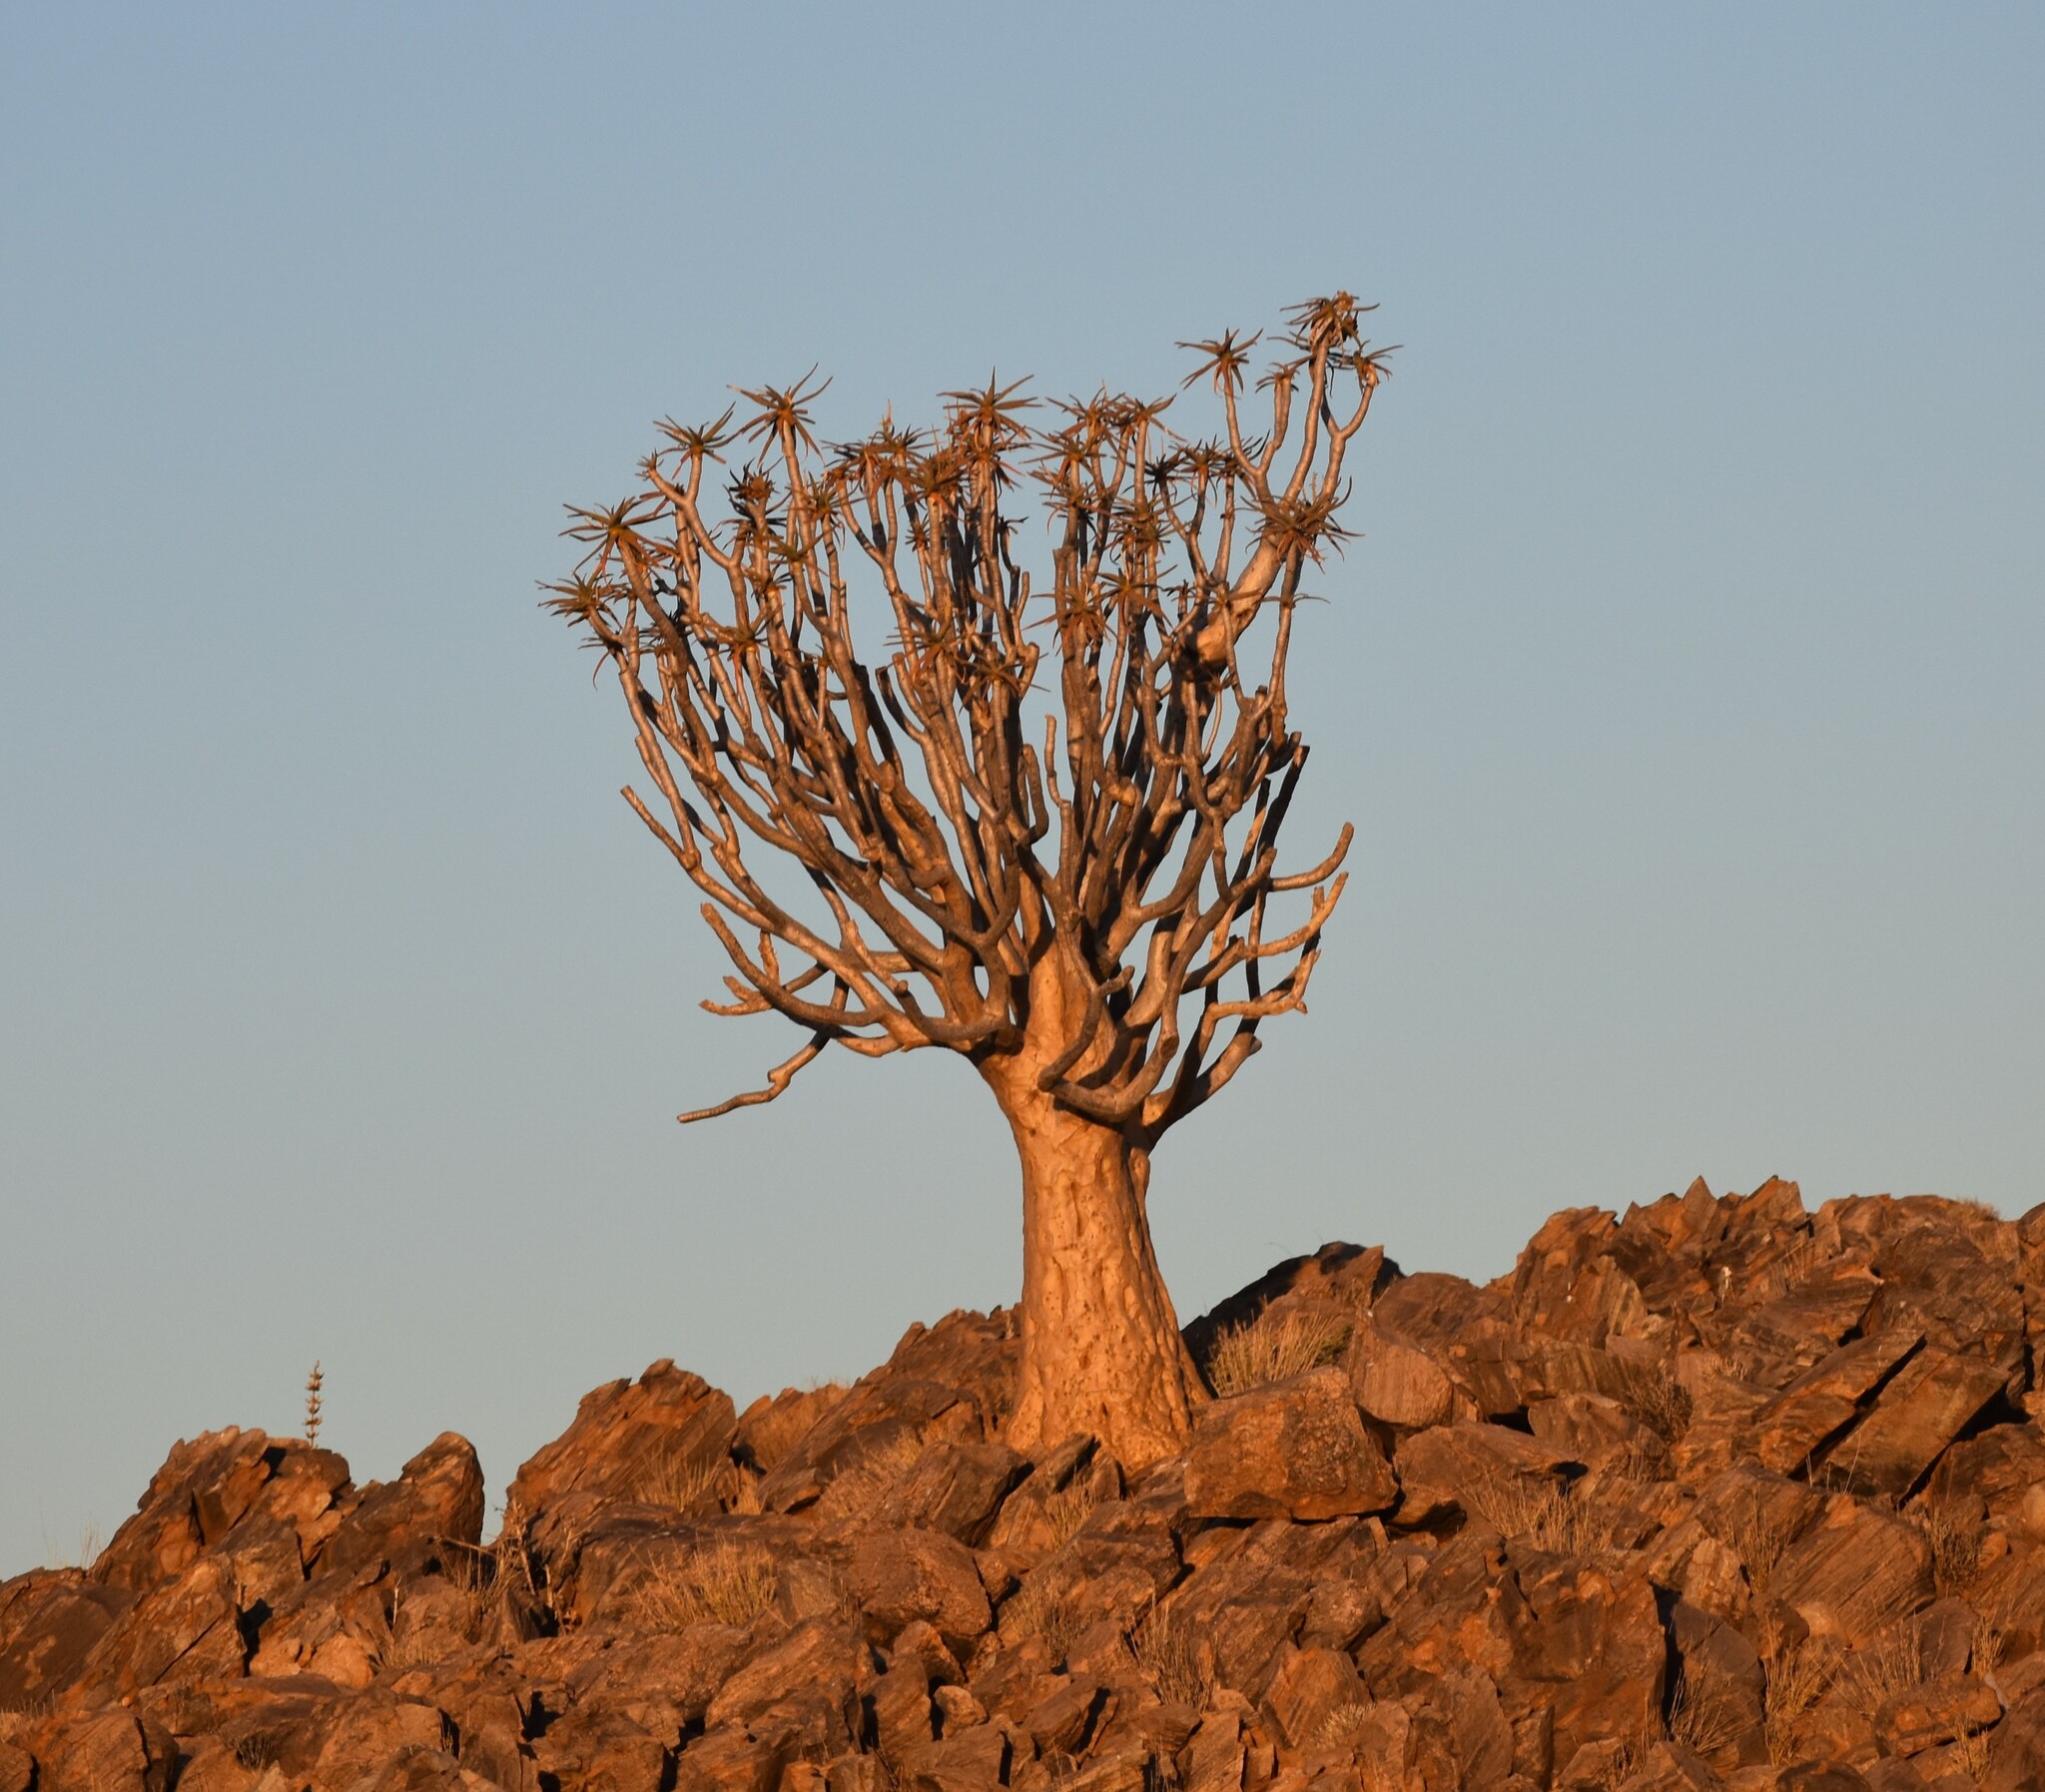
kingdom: Plantae
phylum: Tracheophyta
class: Liliopsida
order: Asparagales
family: Asphodelaceae
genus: Aloidendron
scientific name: Aloidendron dichotomum
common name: Quiver tree
